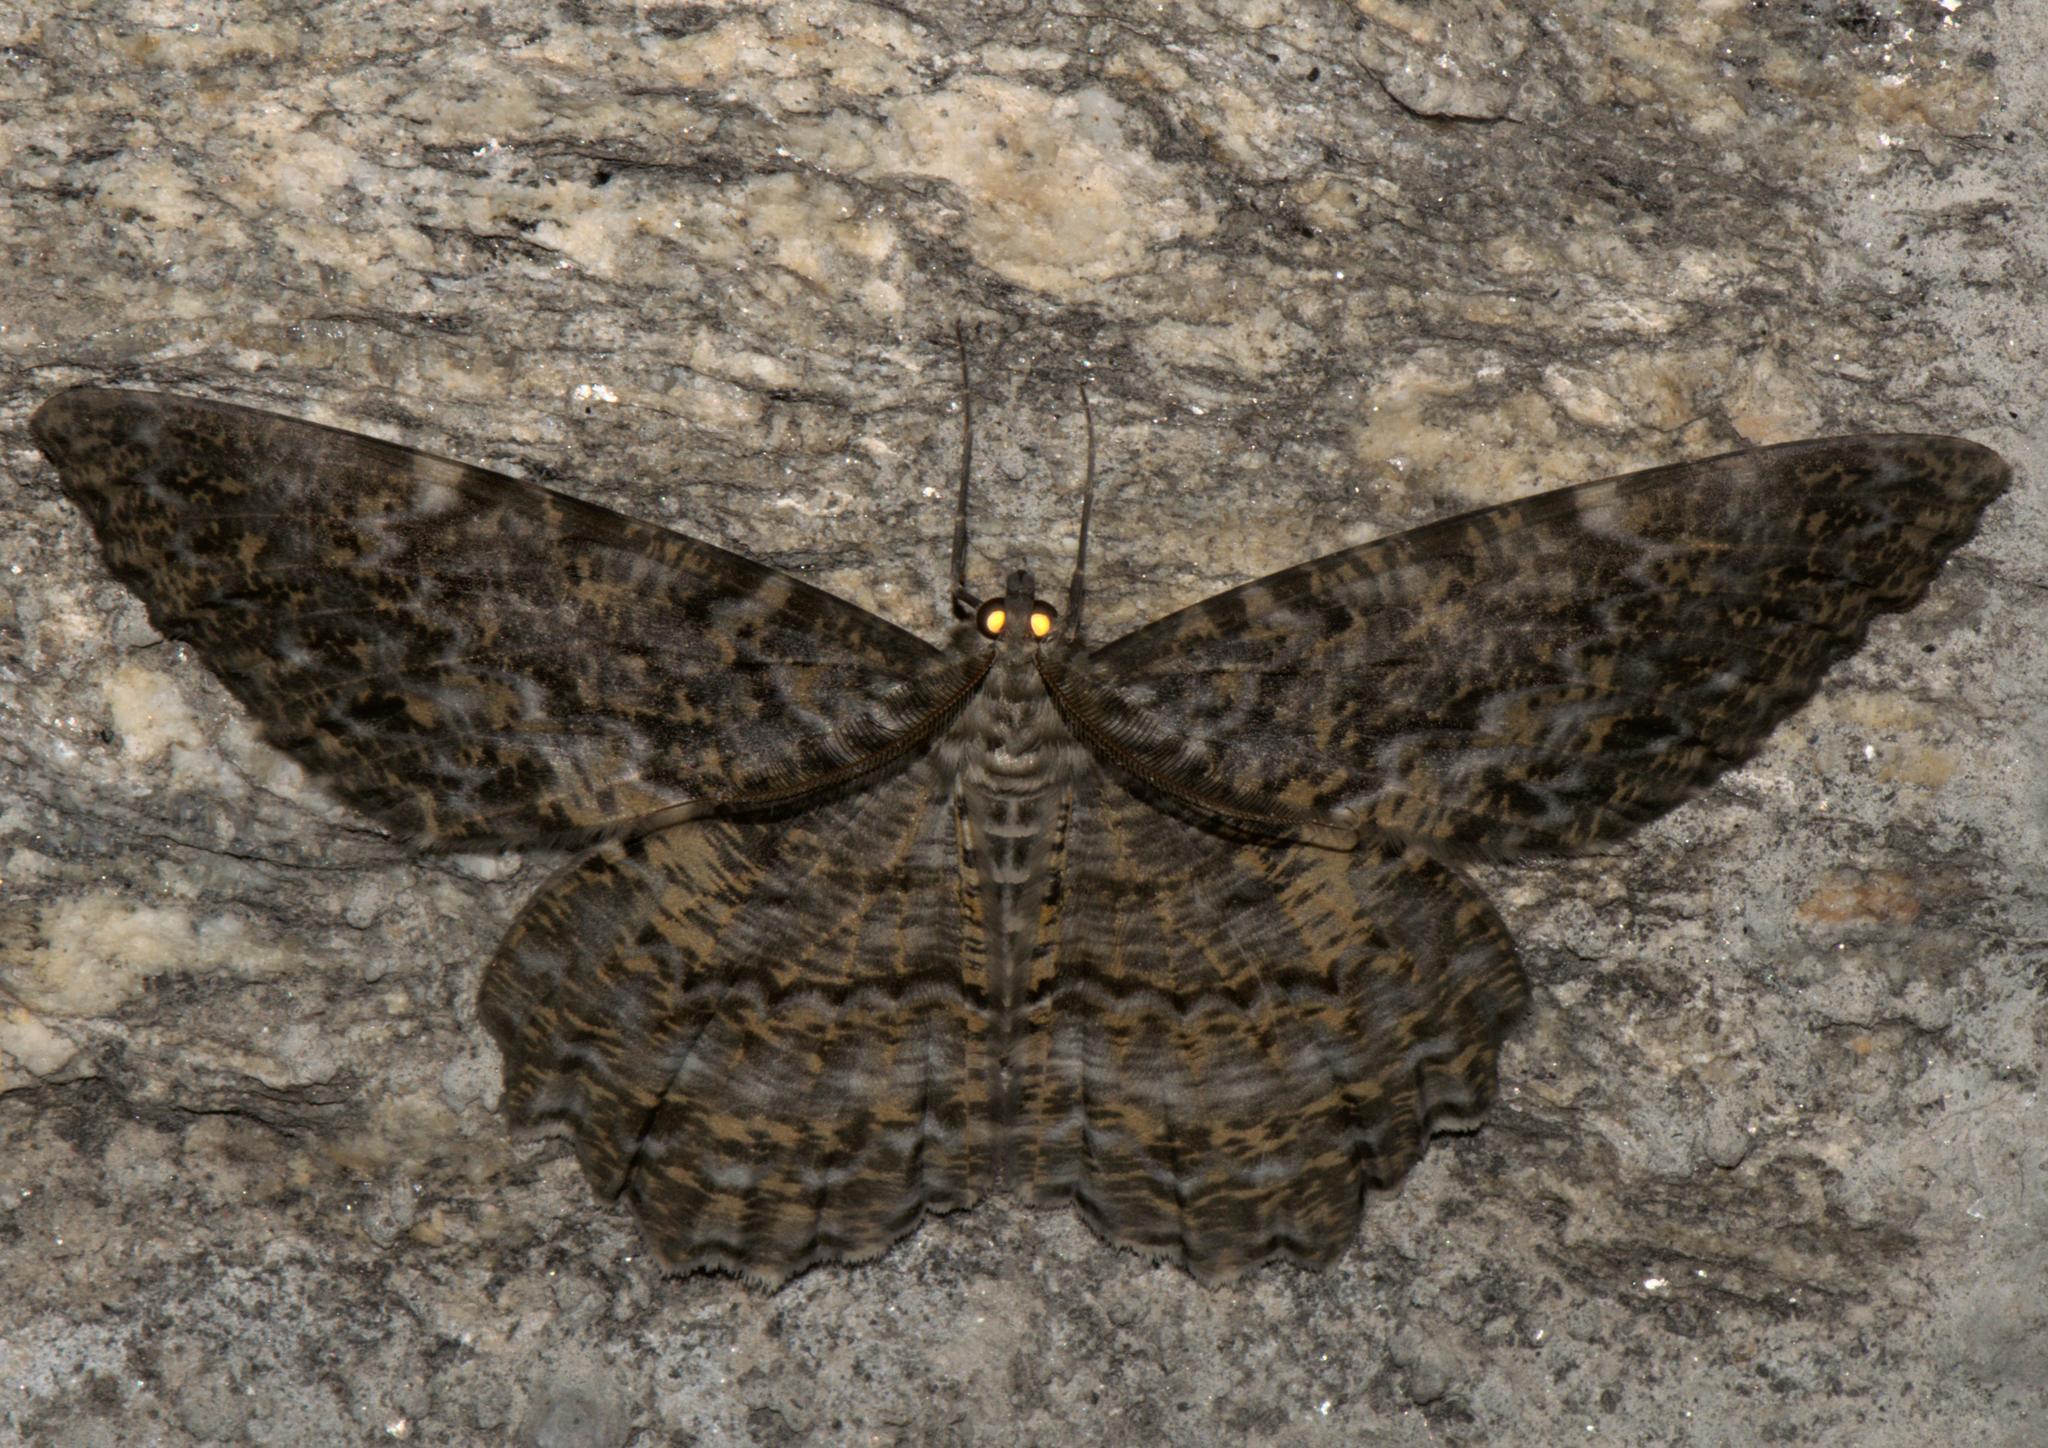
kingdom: Animalia
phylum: Arthropoda
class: Insecta
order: Lepidoptera
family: Geometridae
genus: Amblychia
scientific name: Amblychia pardicelata
